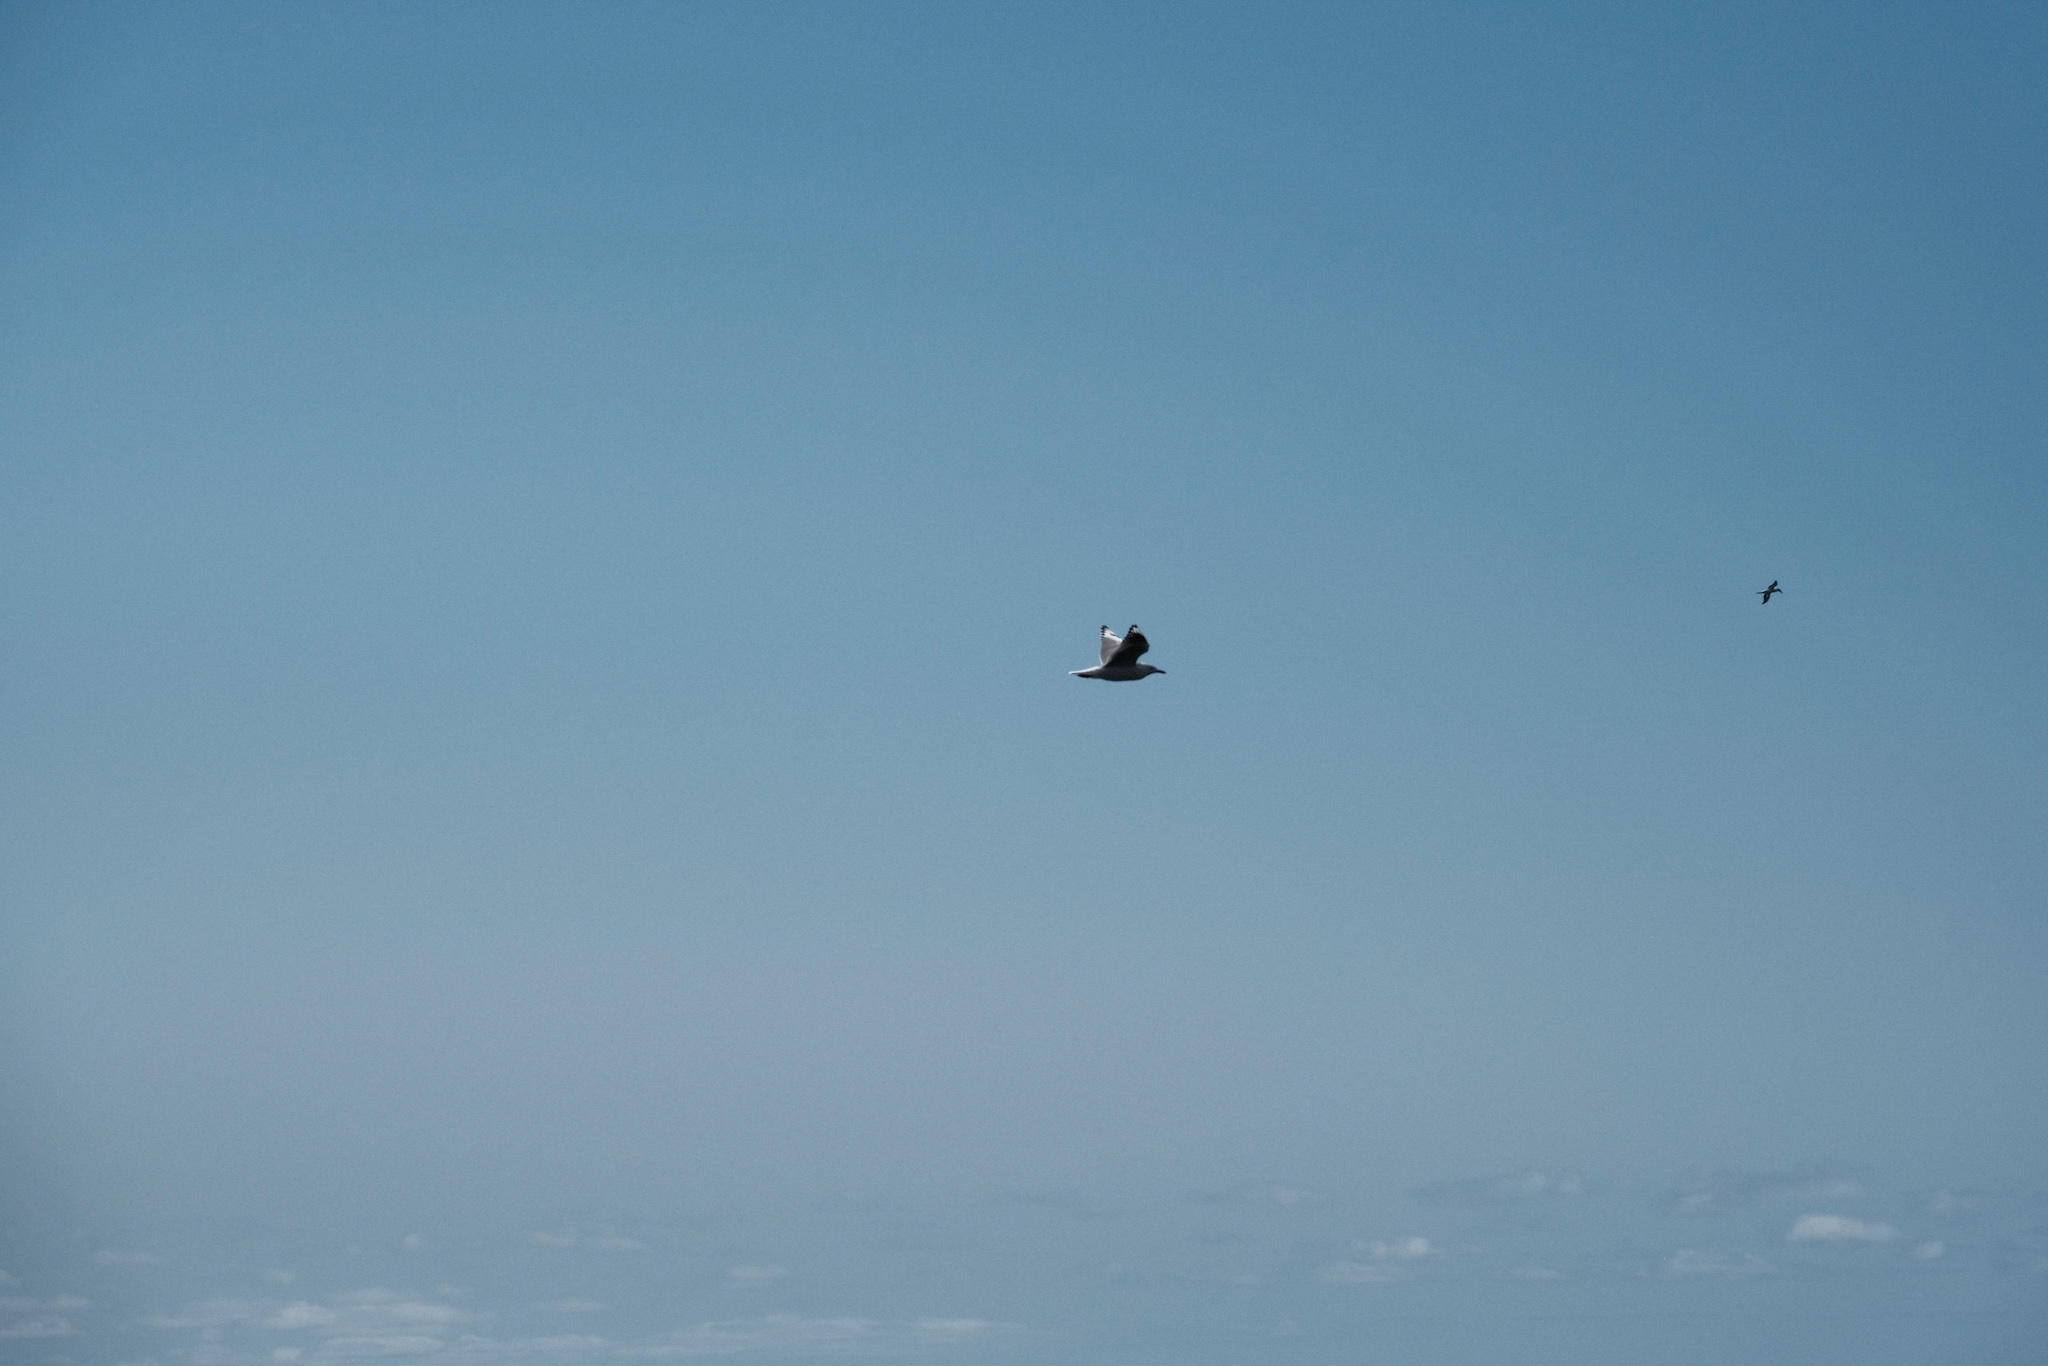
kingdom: Animalia
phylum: Chordata
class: Aves
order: Charadriiformes
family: Laridae
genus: Chroicocephalus
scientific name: Chroicocephalus novaehollandiae
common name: Silver gull
